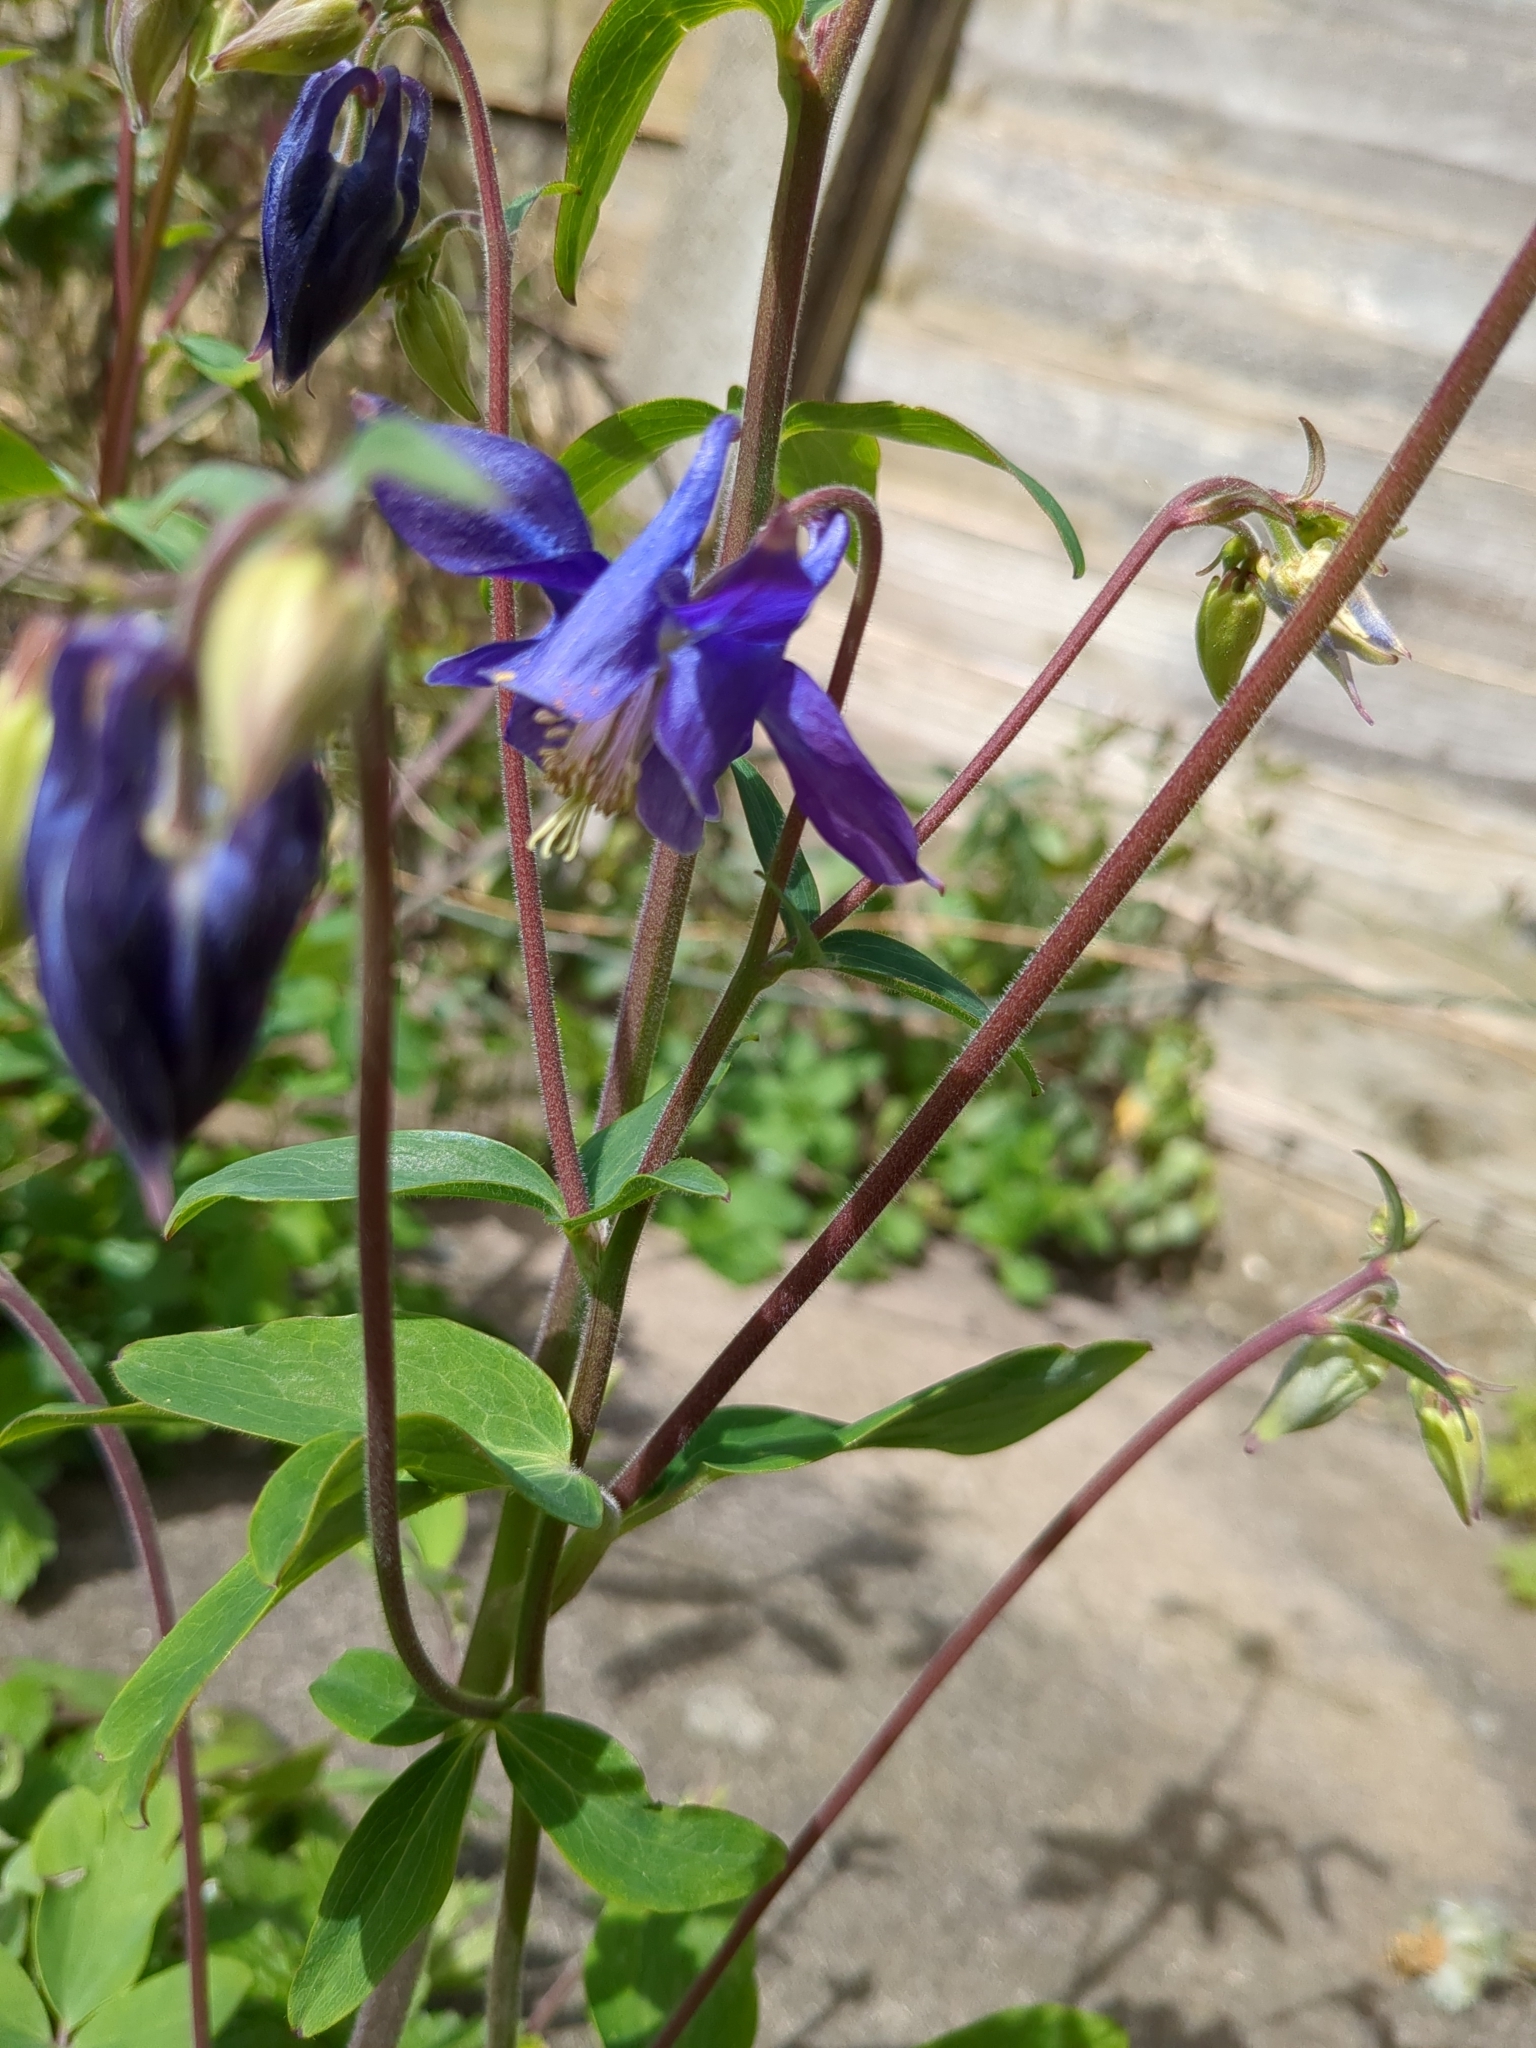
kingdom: Plantae
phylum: Tracheophyta
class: Magnoliopsida
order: Ranunculales
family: Ranunculaceae
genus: Aquilegia
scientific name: Aquilegia vulgaris
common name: Columbine
